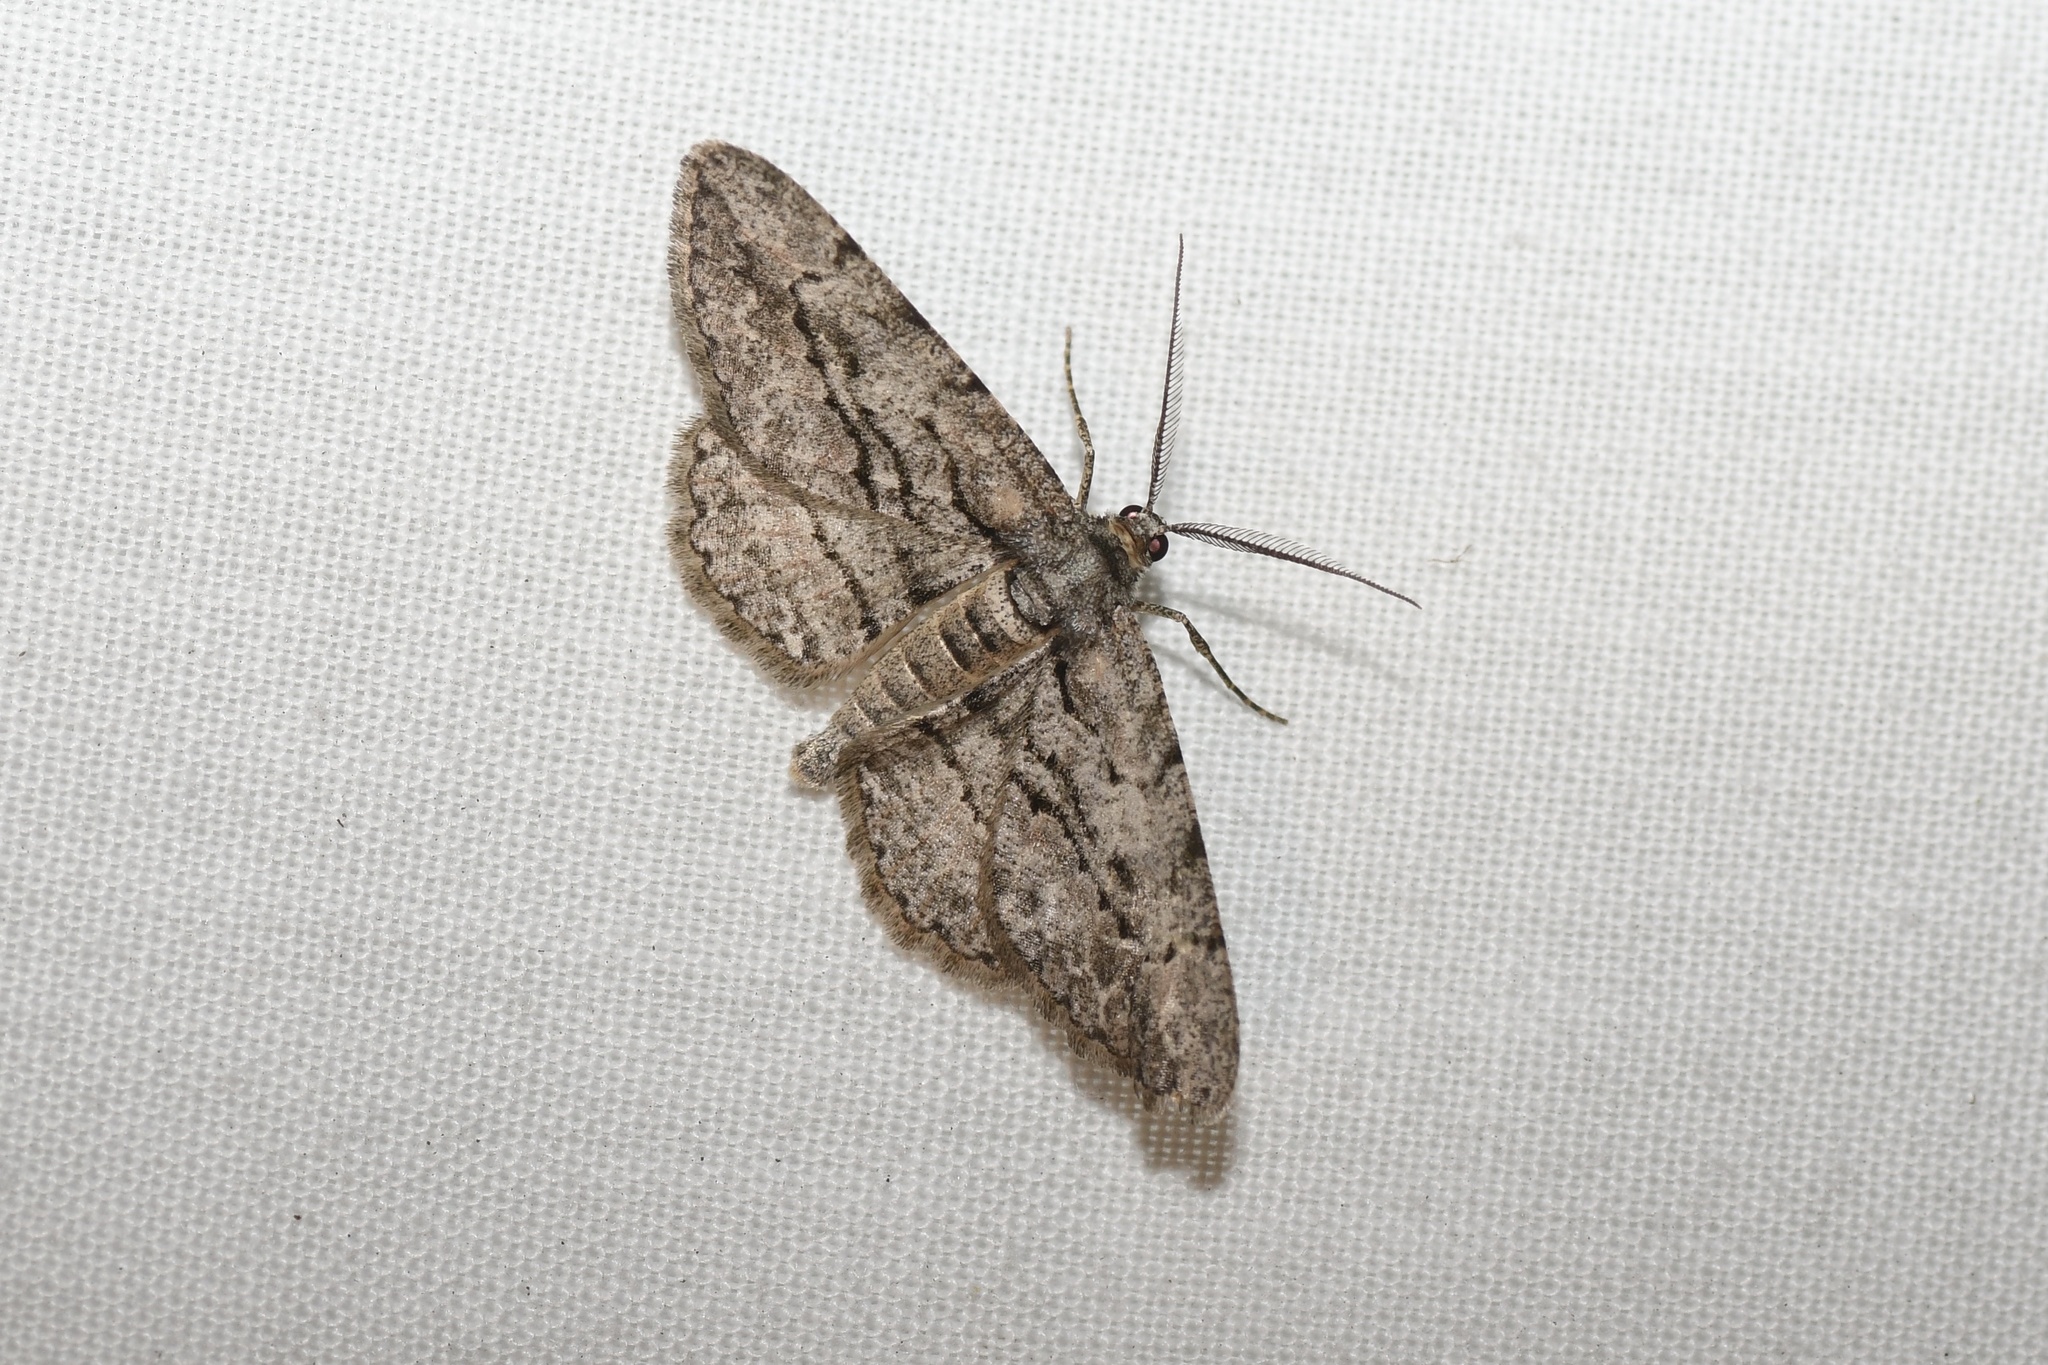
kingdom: Animalia
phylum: Arthropoda
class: Insecta
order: Lepidoptera
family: Geometridae
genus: Anavitrinella
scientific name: Anavitrinella pampinaria
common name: Common gray
